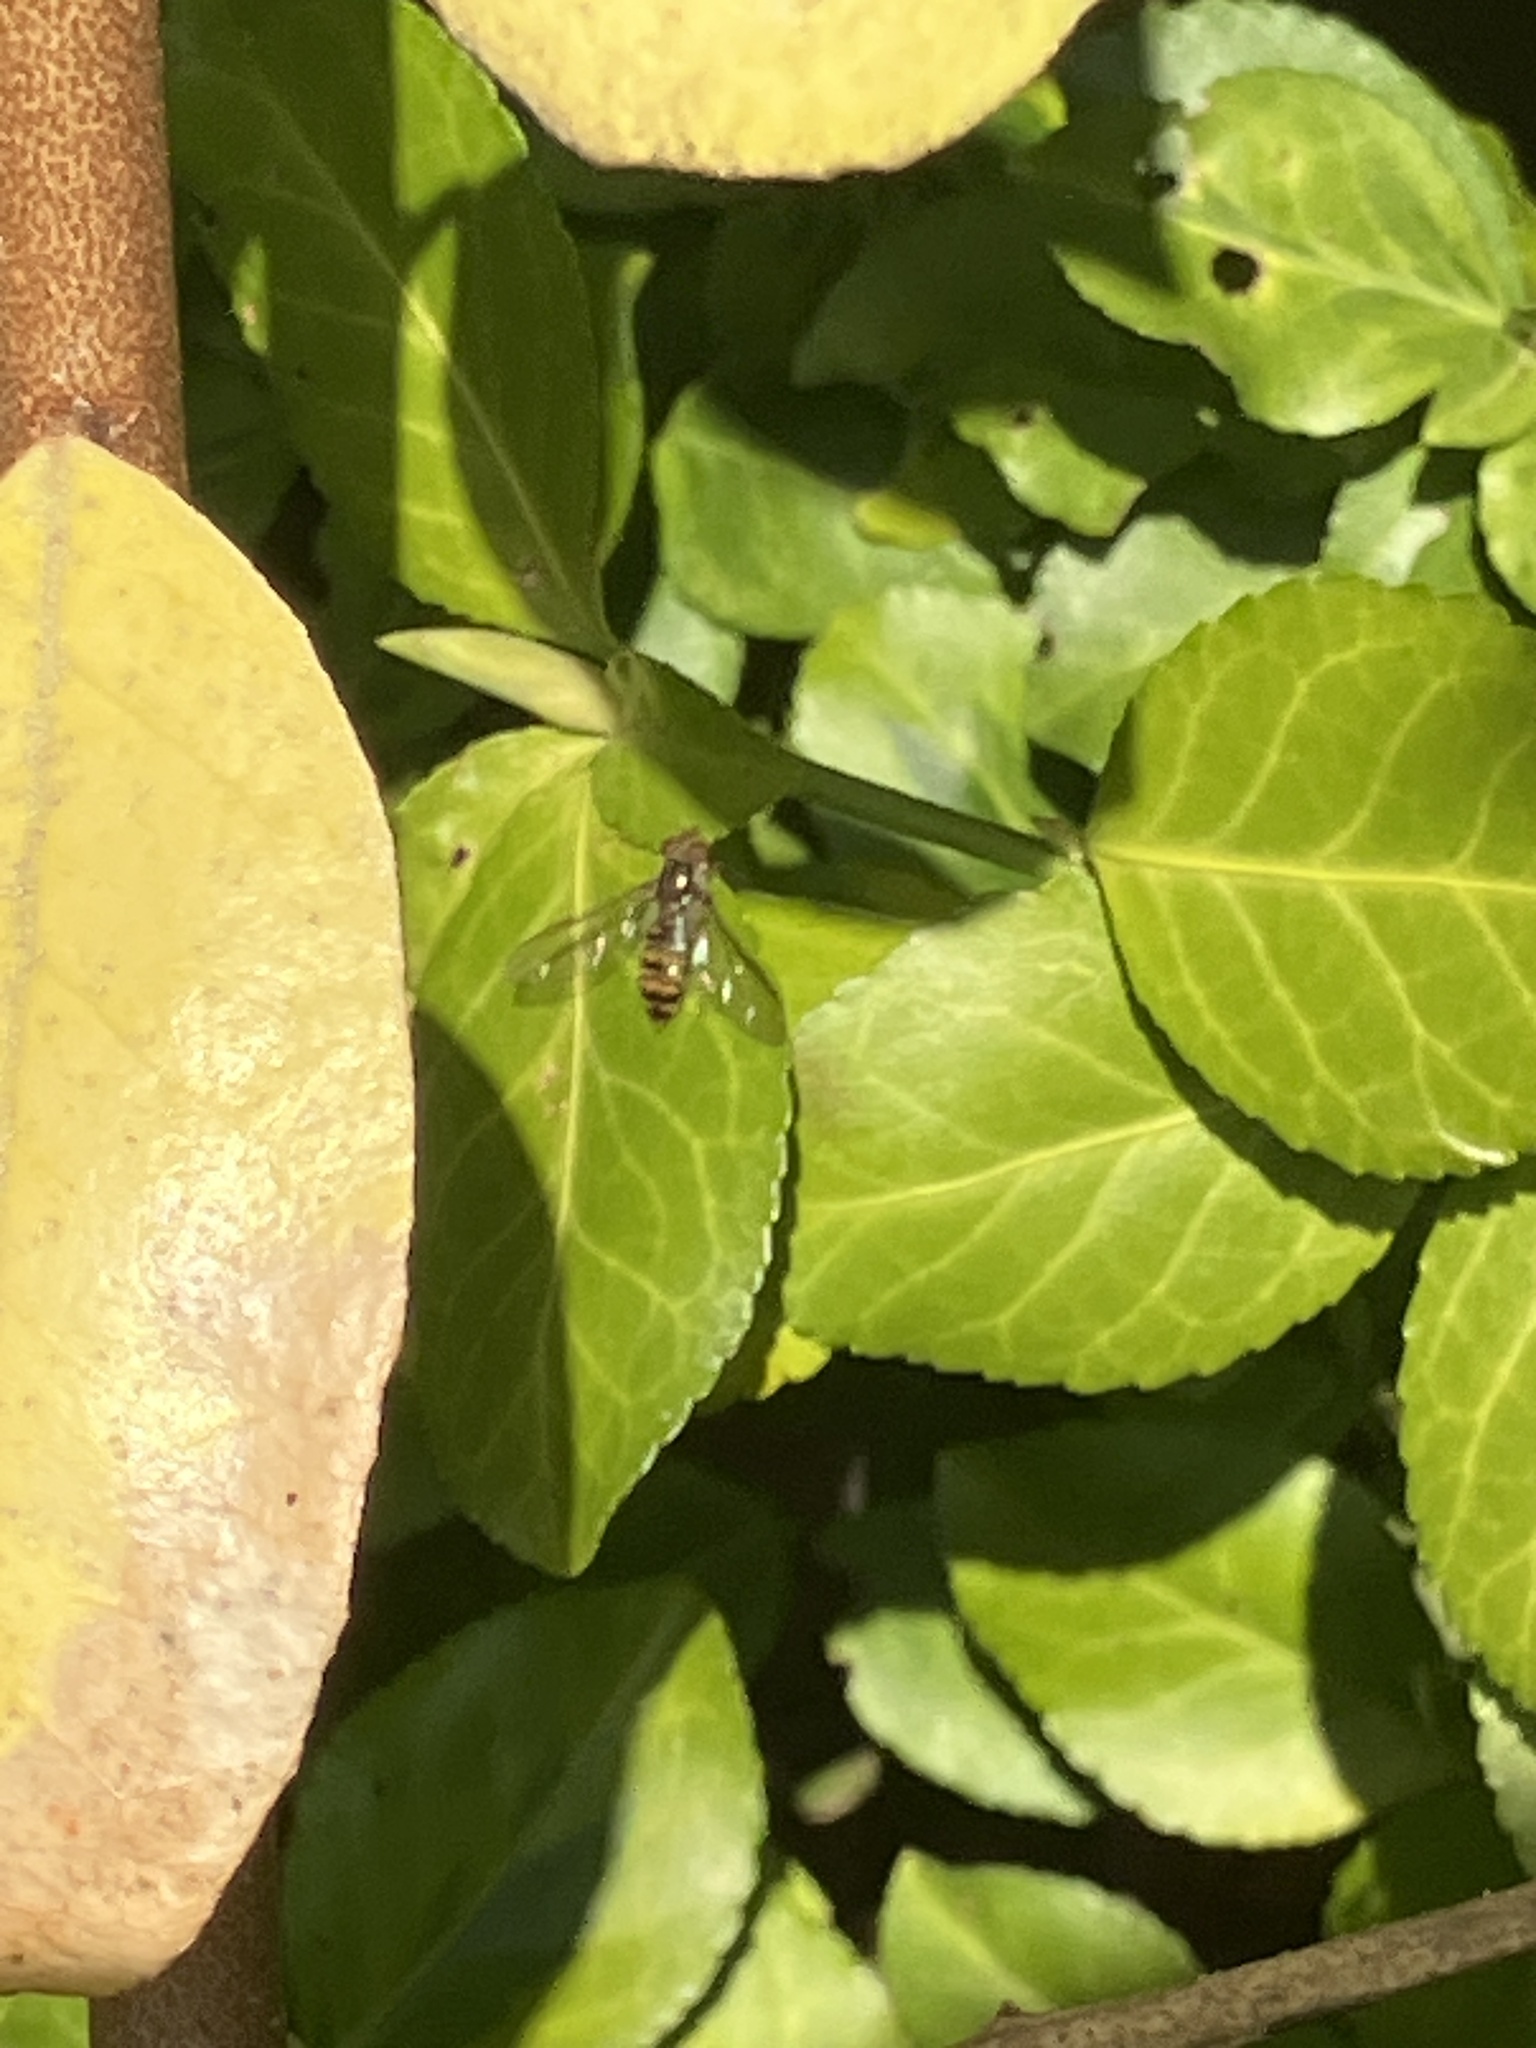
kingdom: Animalia
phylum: Arthropoda
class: Insecta
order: Diptera
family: Syrphidae
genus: Episyrphus
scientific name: Episyrphus balteatus
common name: Marmalade hoverfly
